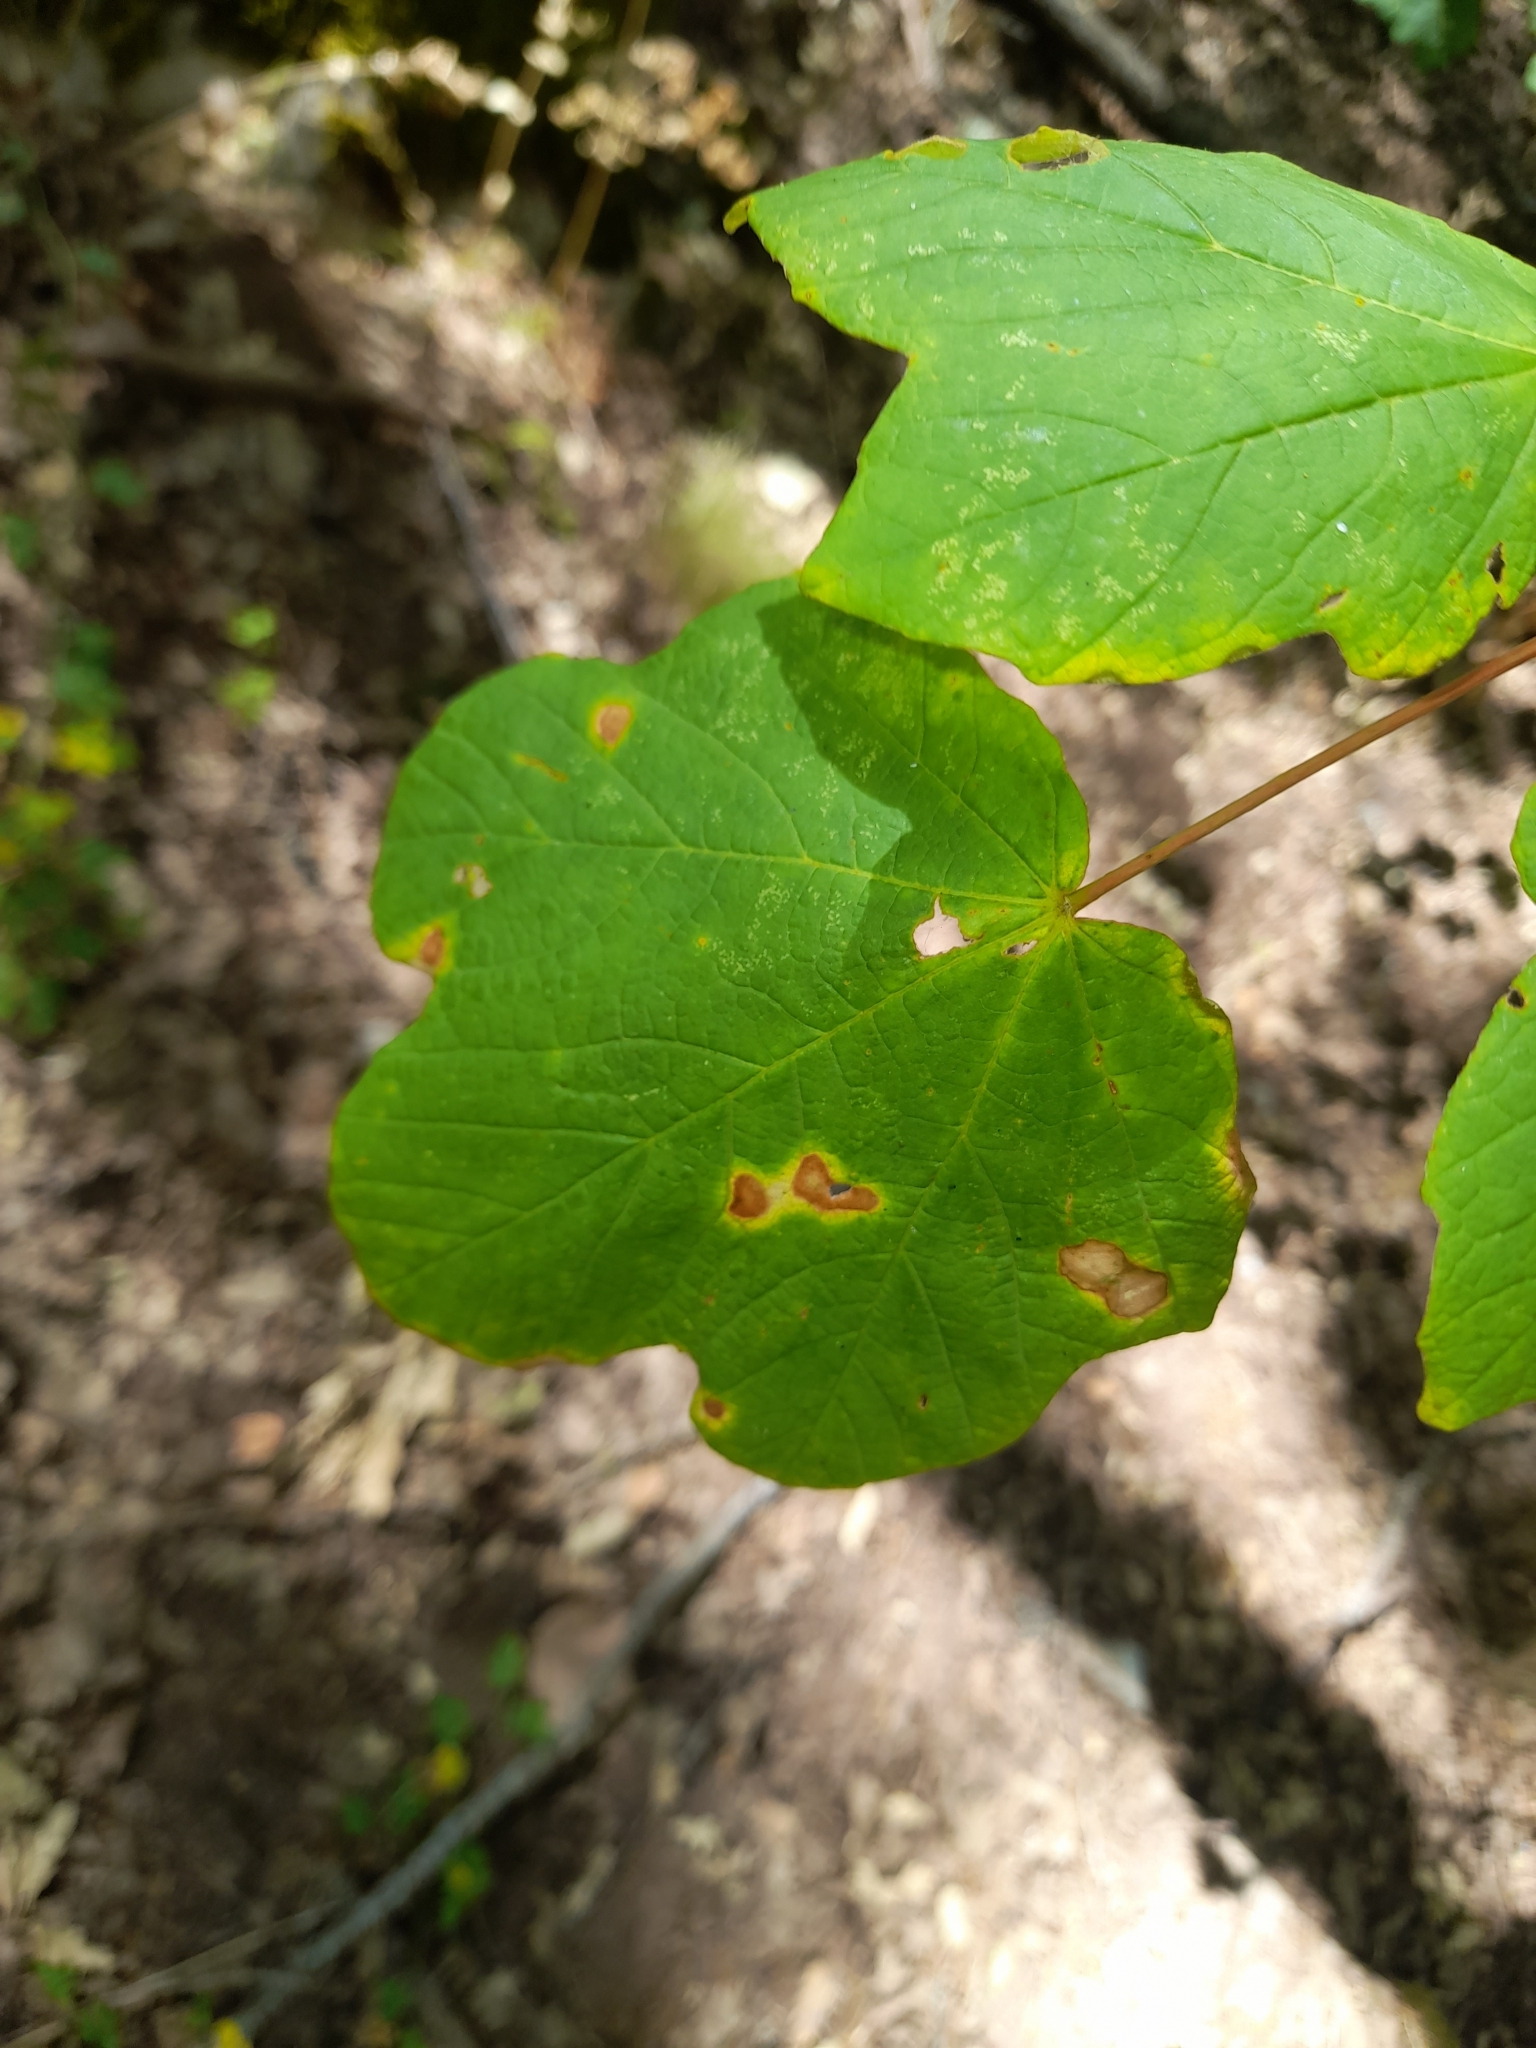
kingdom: Plantae
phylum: Tracheophyta
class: Magnoliopsida
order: Sapindales
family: Sapindaceae
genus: Acer
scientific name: Acer opalus
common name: Italian maple
